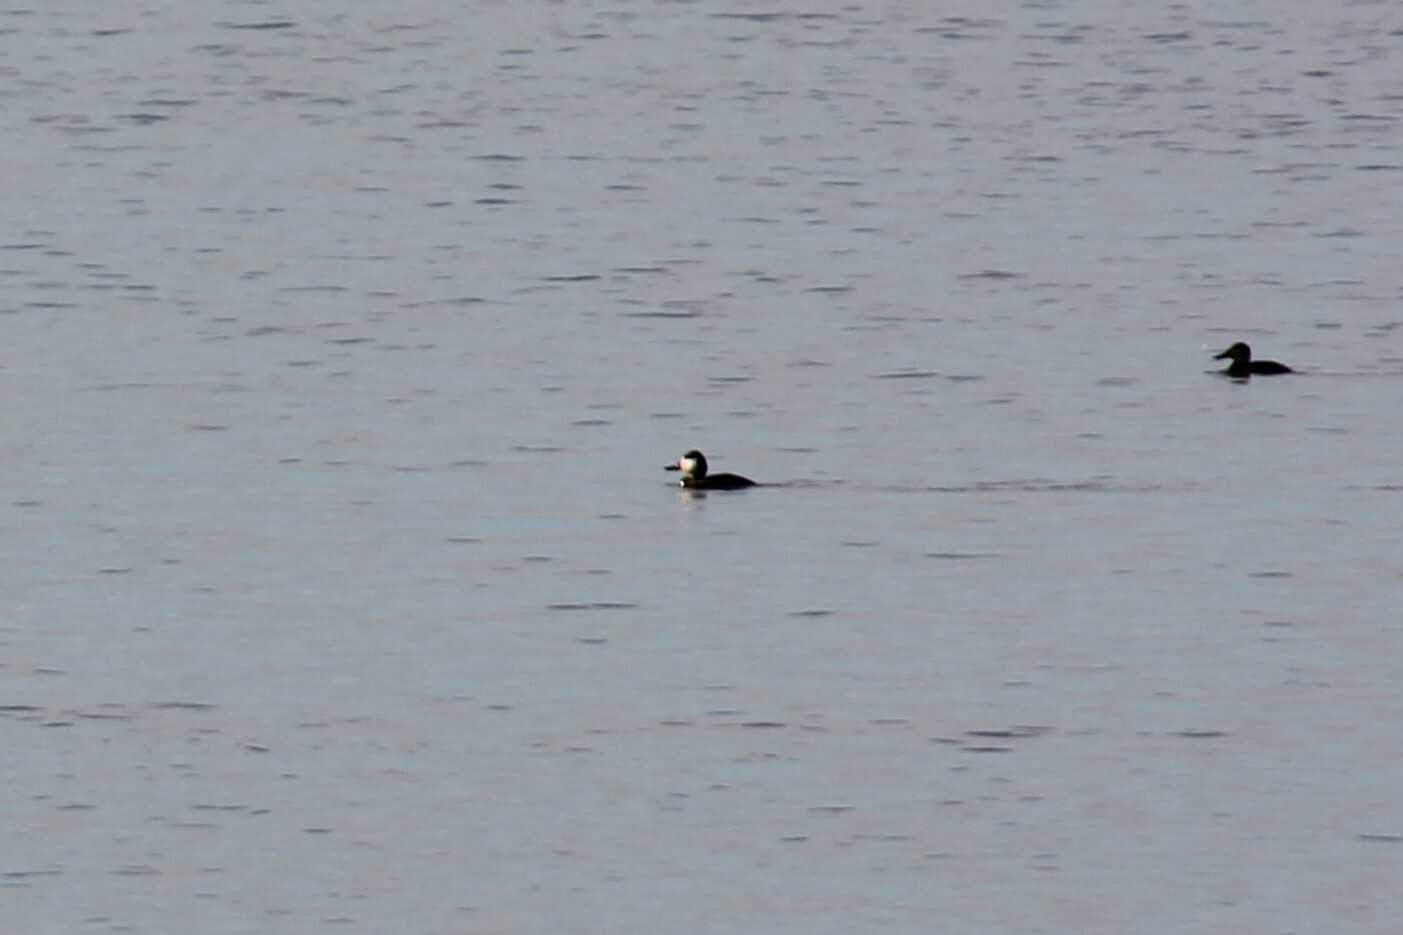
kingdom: Animalia
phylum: Chordata
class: Aves
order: Anseriformes
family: Anatidae
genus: Oxyura
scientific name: Oxyura jamaicensis
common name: Ruddy duck
